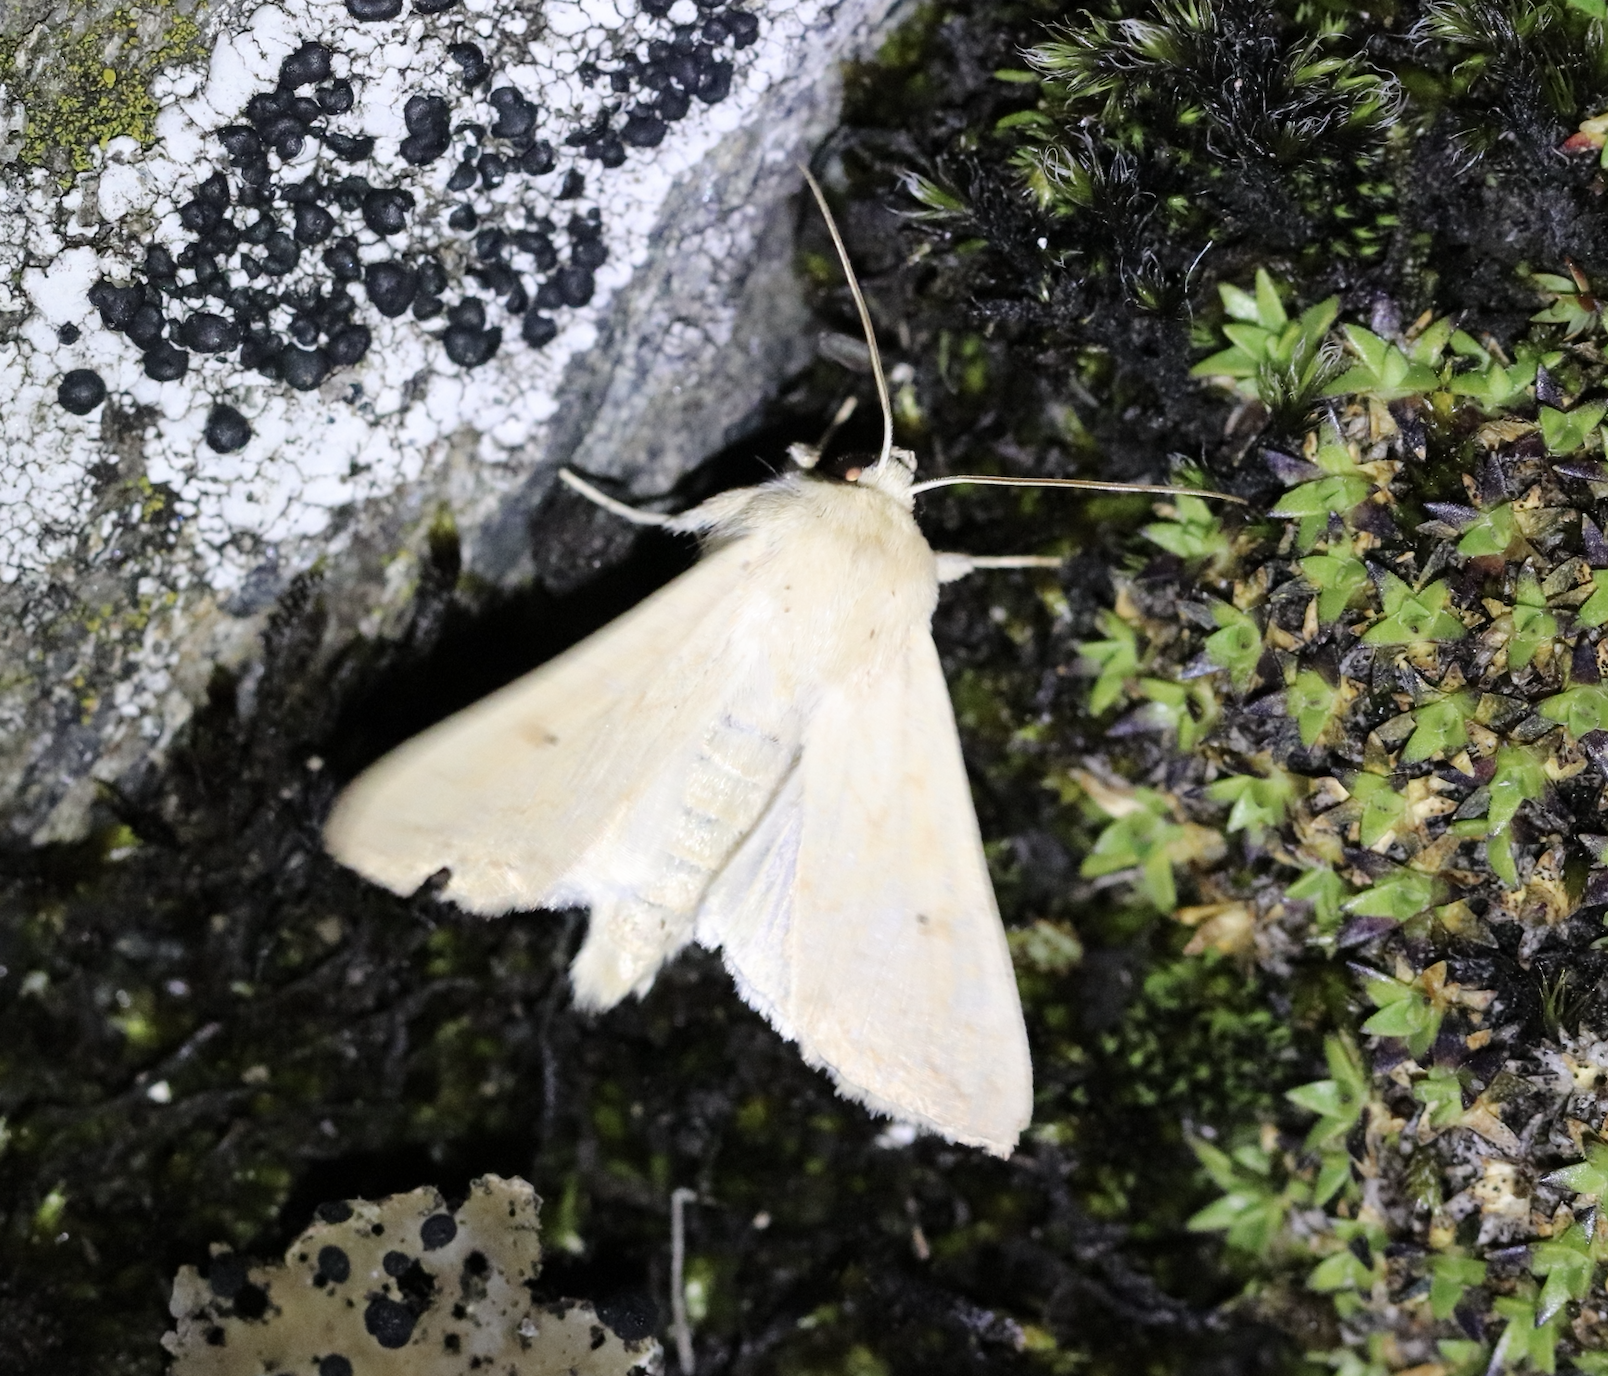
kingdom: Animalia
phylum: Arthropoda
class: Insecta
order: Lepidoptera
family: Noctuidae
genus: Mythimna
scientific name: Mythimna vitellina
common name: Delicate
